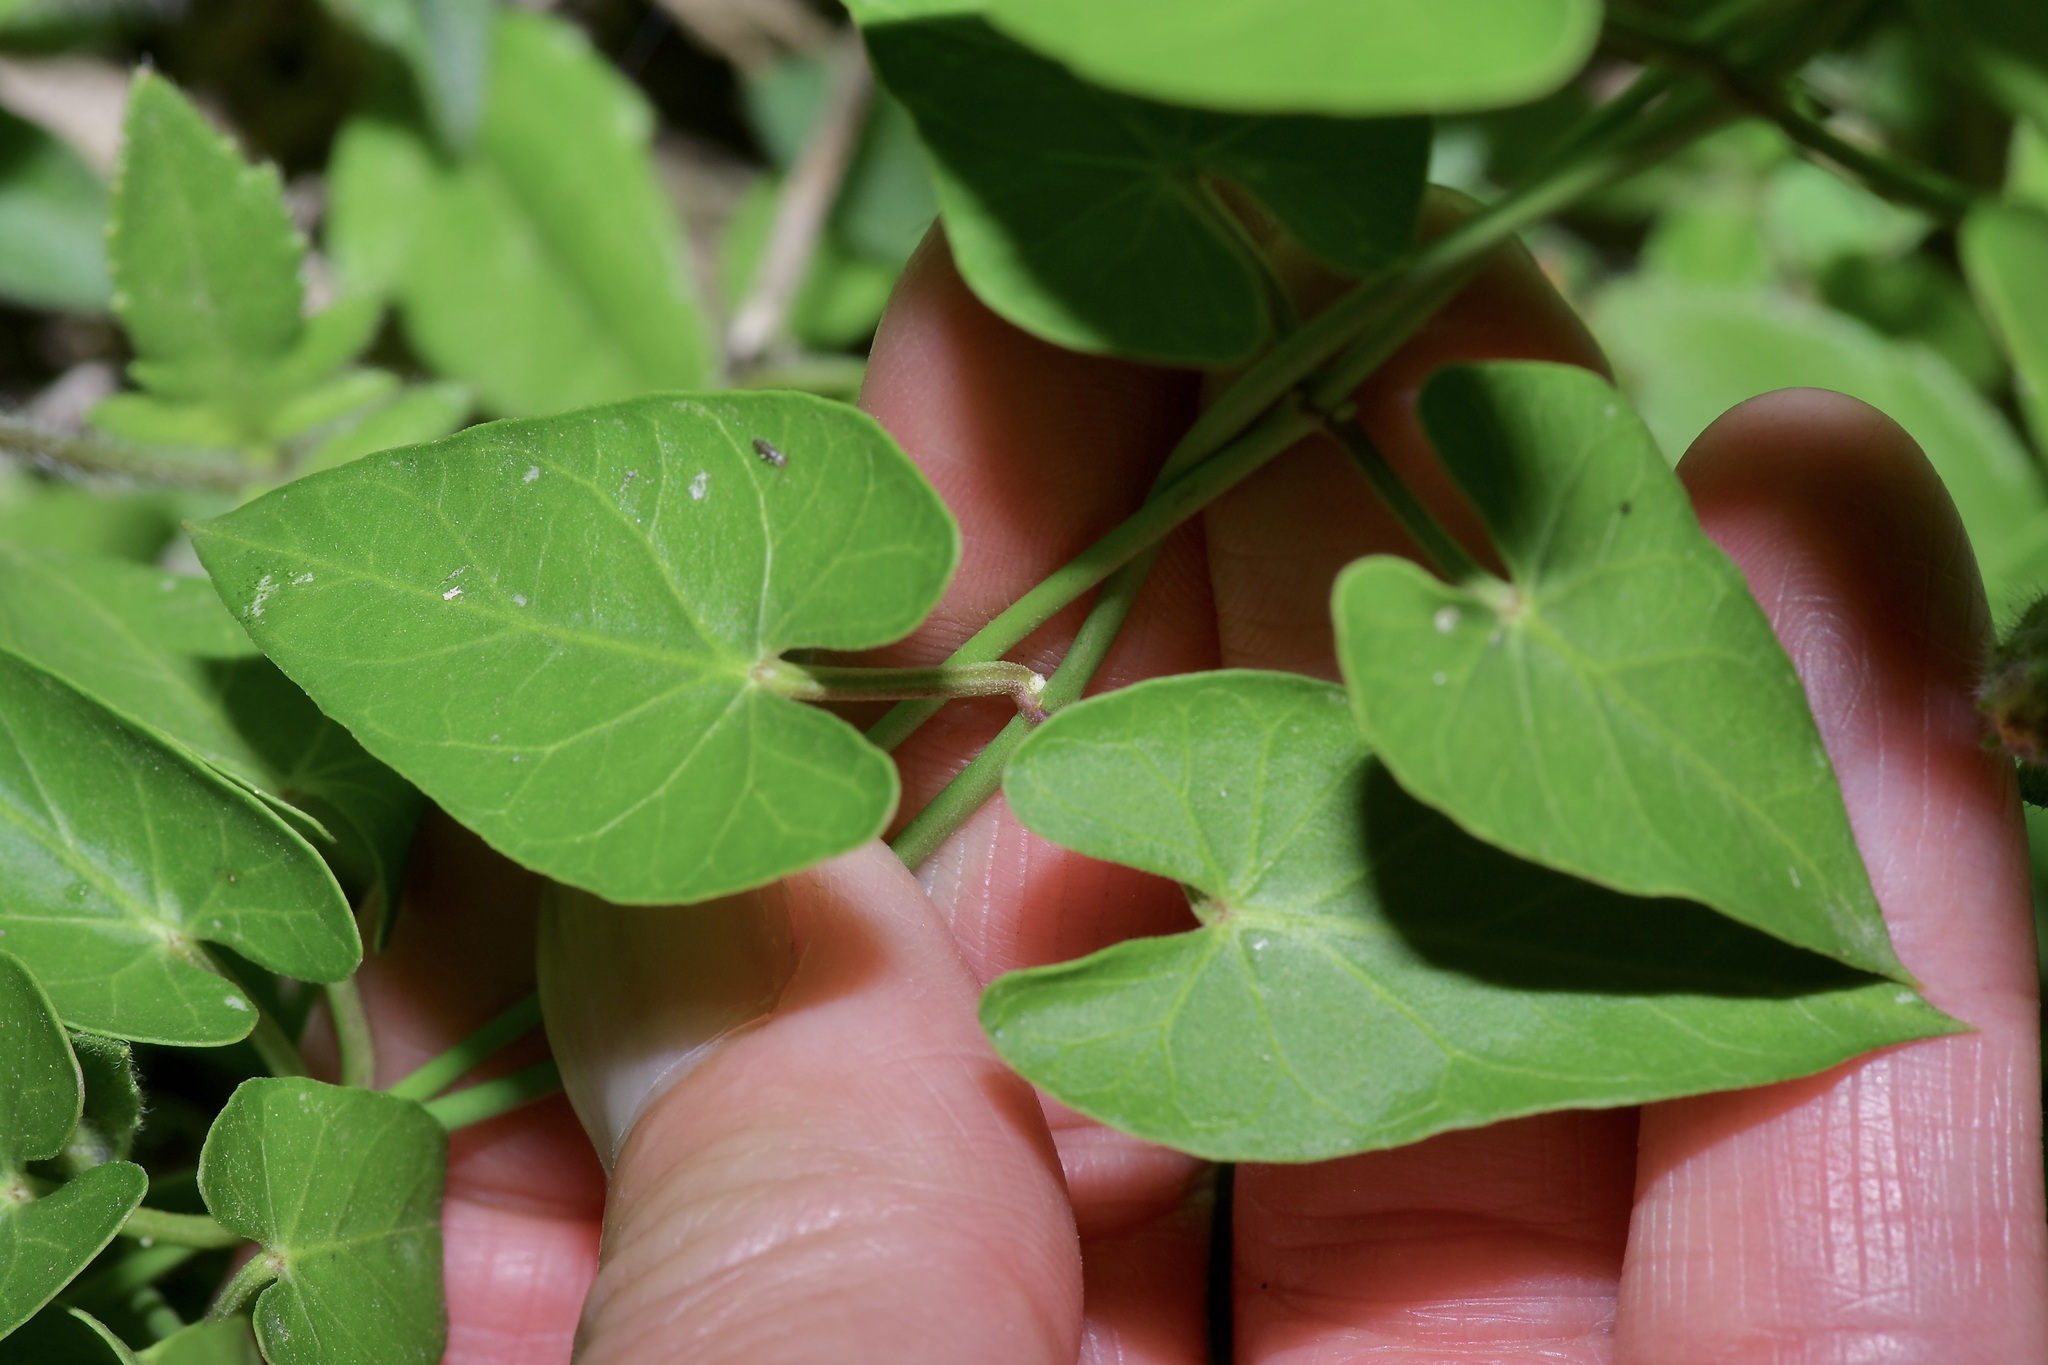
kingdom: Plantae
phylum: Tracheophyta
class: Magnoliopsida
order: Gentianales
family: Apocynaceae
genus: Funastrum
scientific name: Funastrum cynanchoides
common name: Climbing-milkweed
